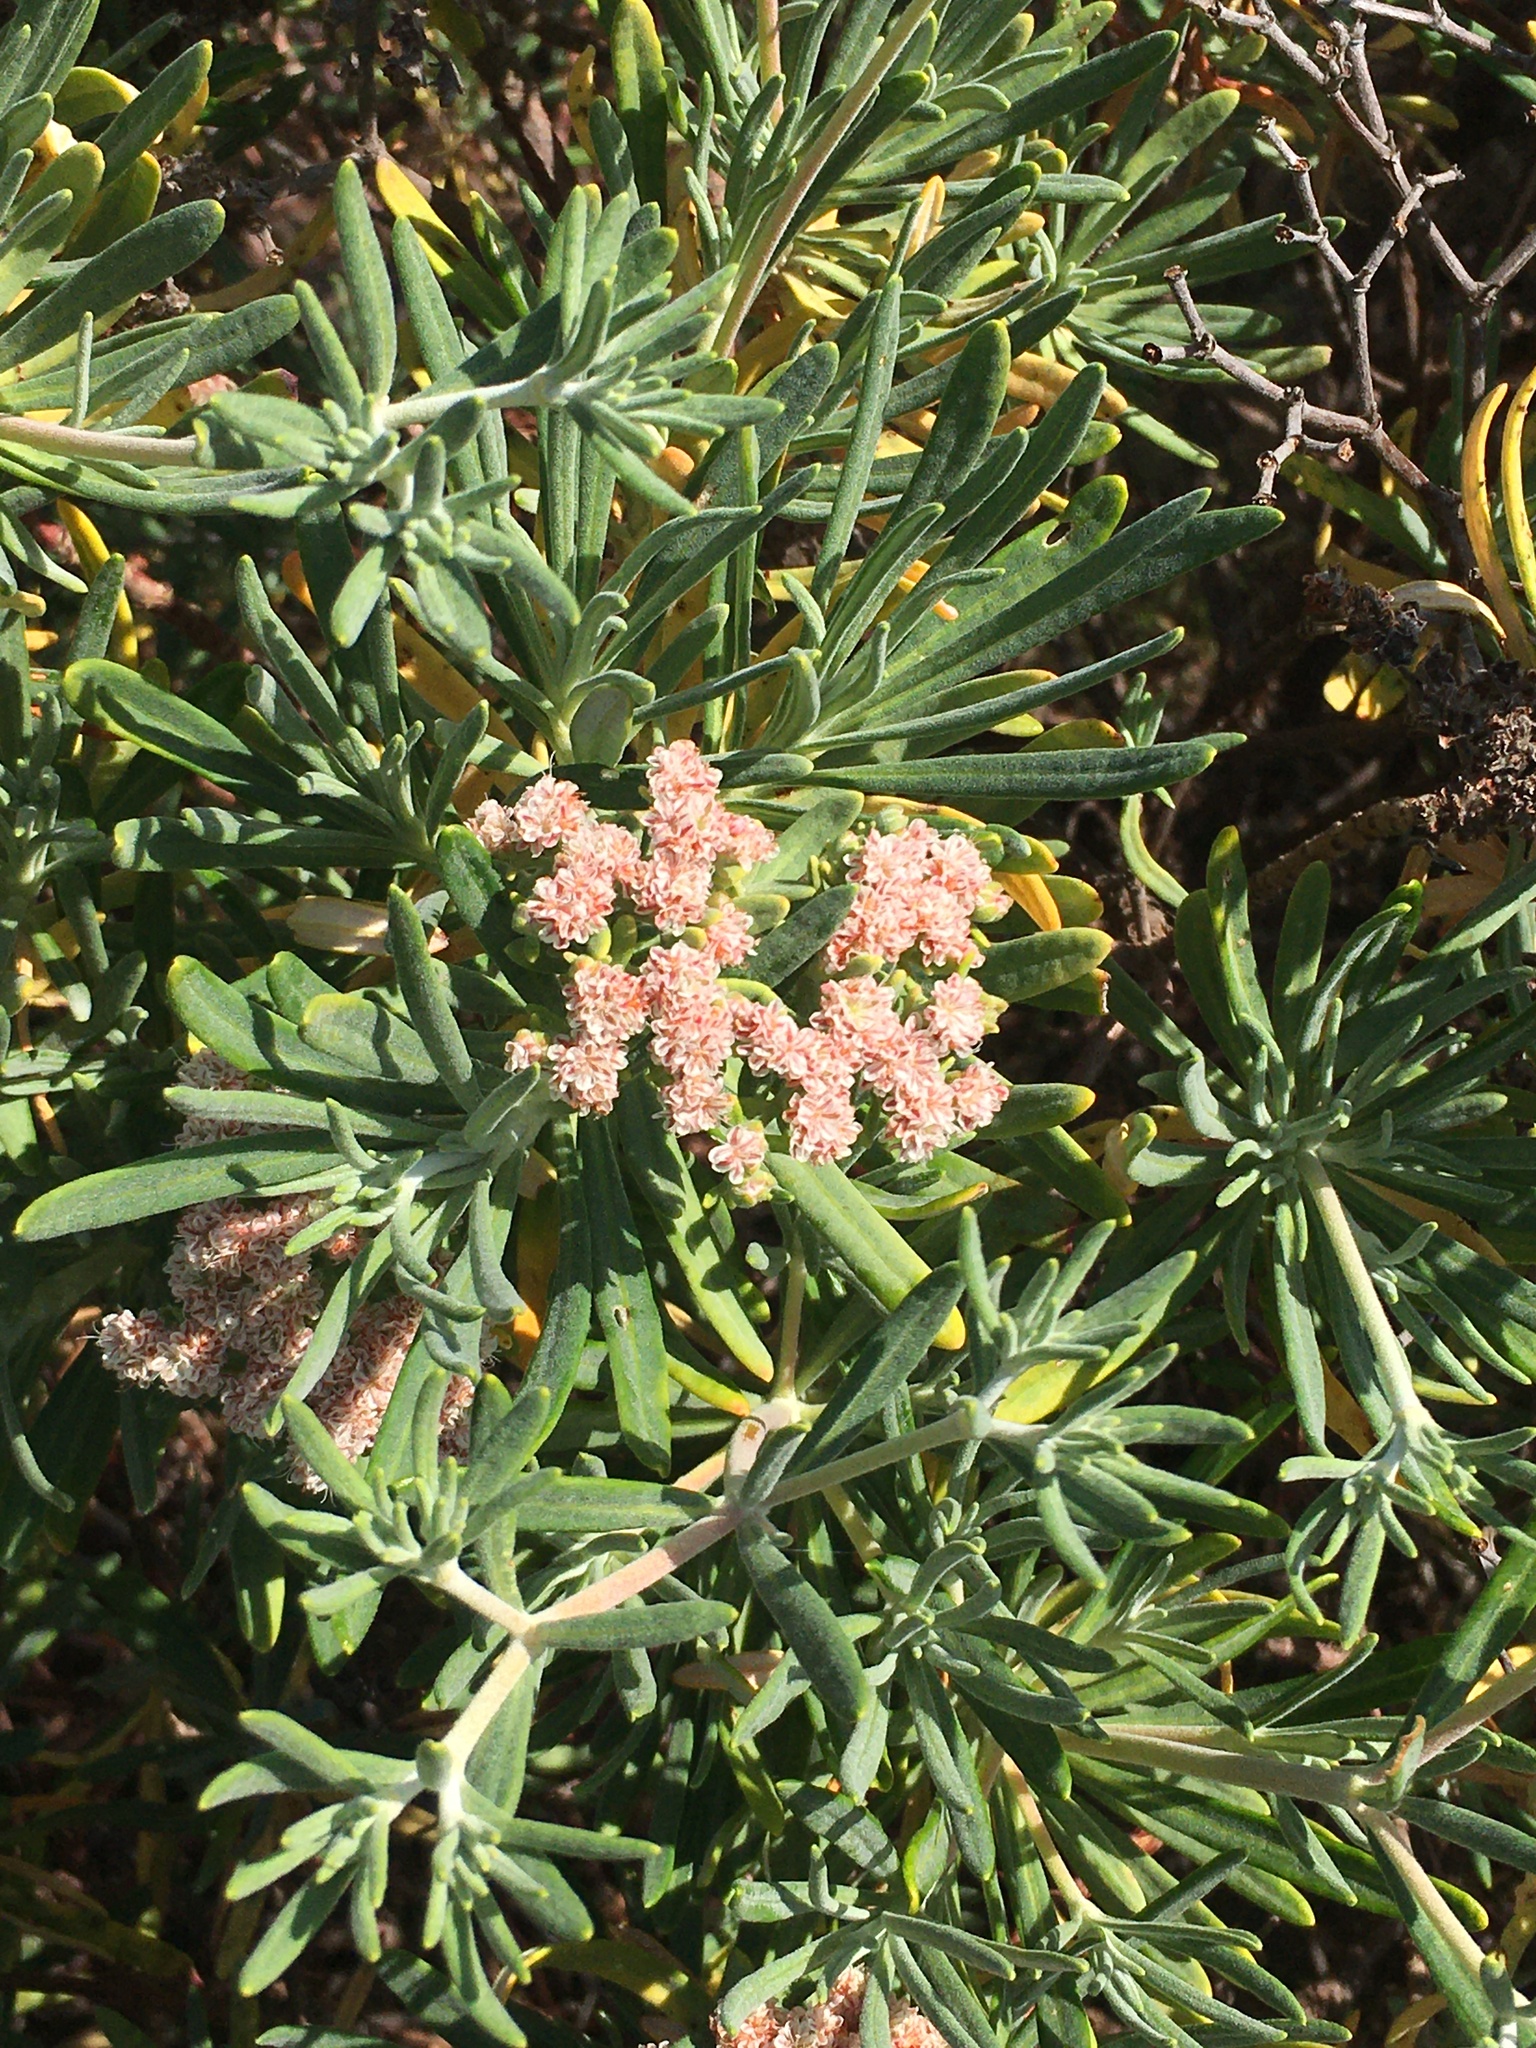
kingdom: Plantae
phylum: Tracheophyta
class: Magnoliopsida
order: Caryophyllales
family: Polygonaceae
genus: Eriogonum
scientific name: Eriogonum arborescens
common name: Island buckwheat
